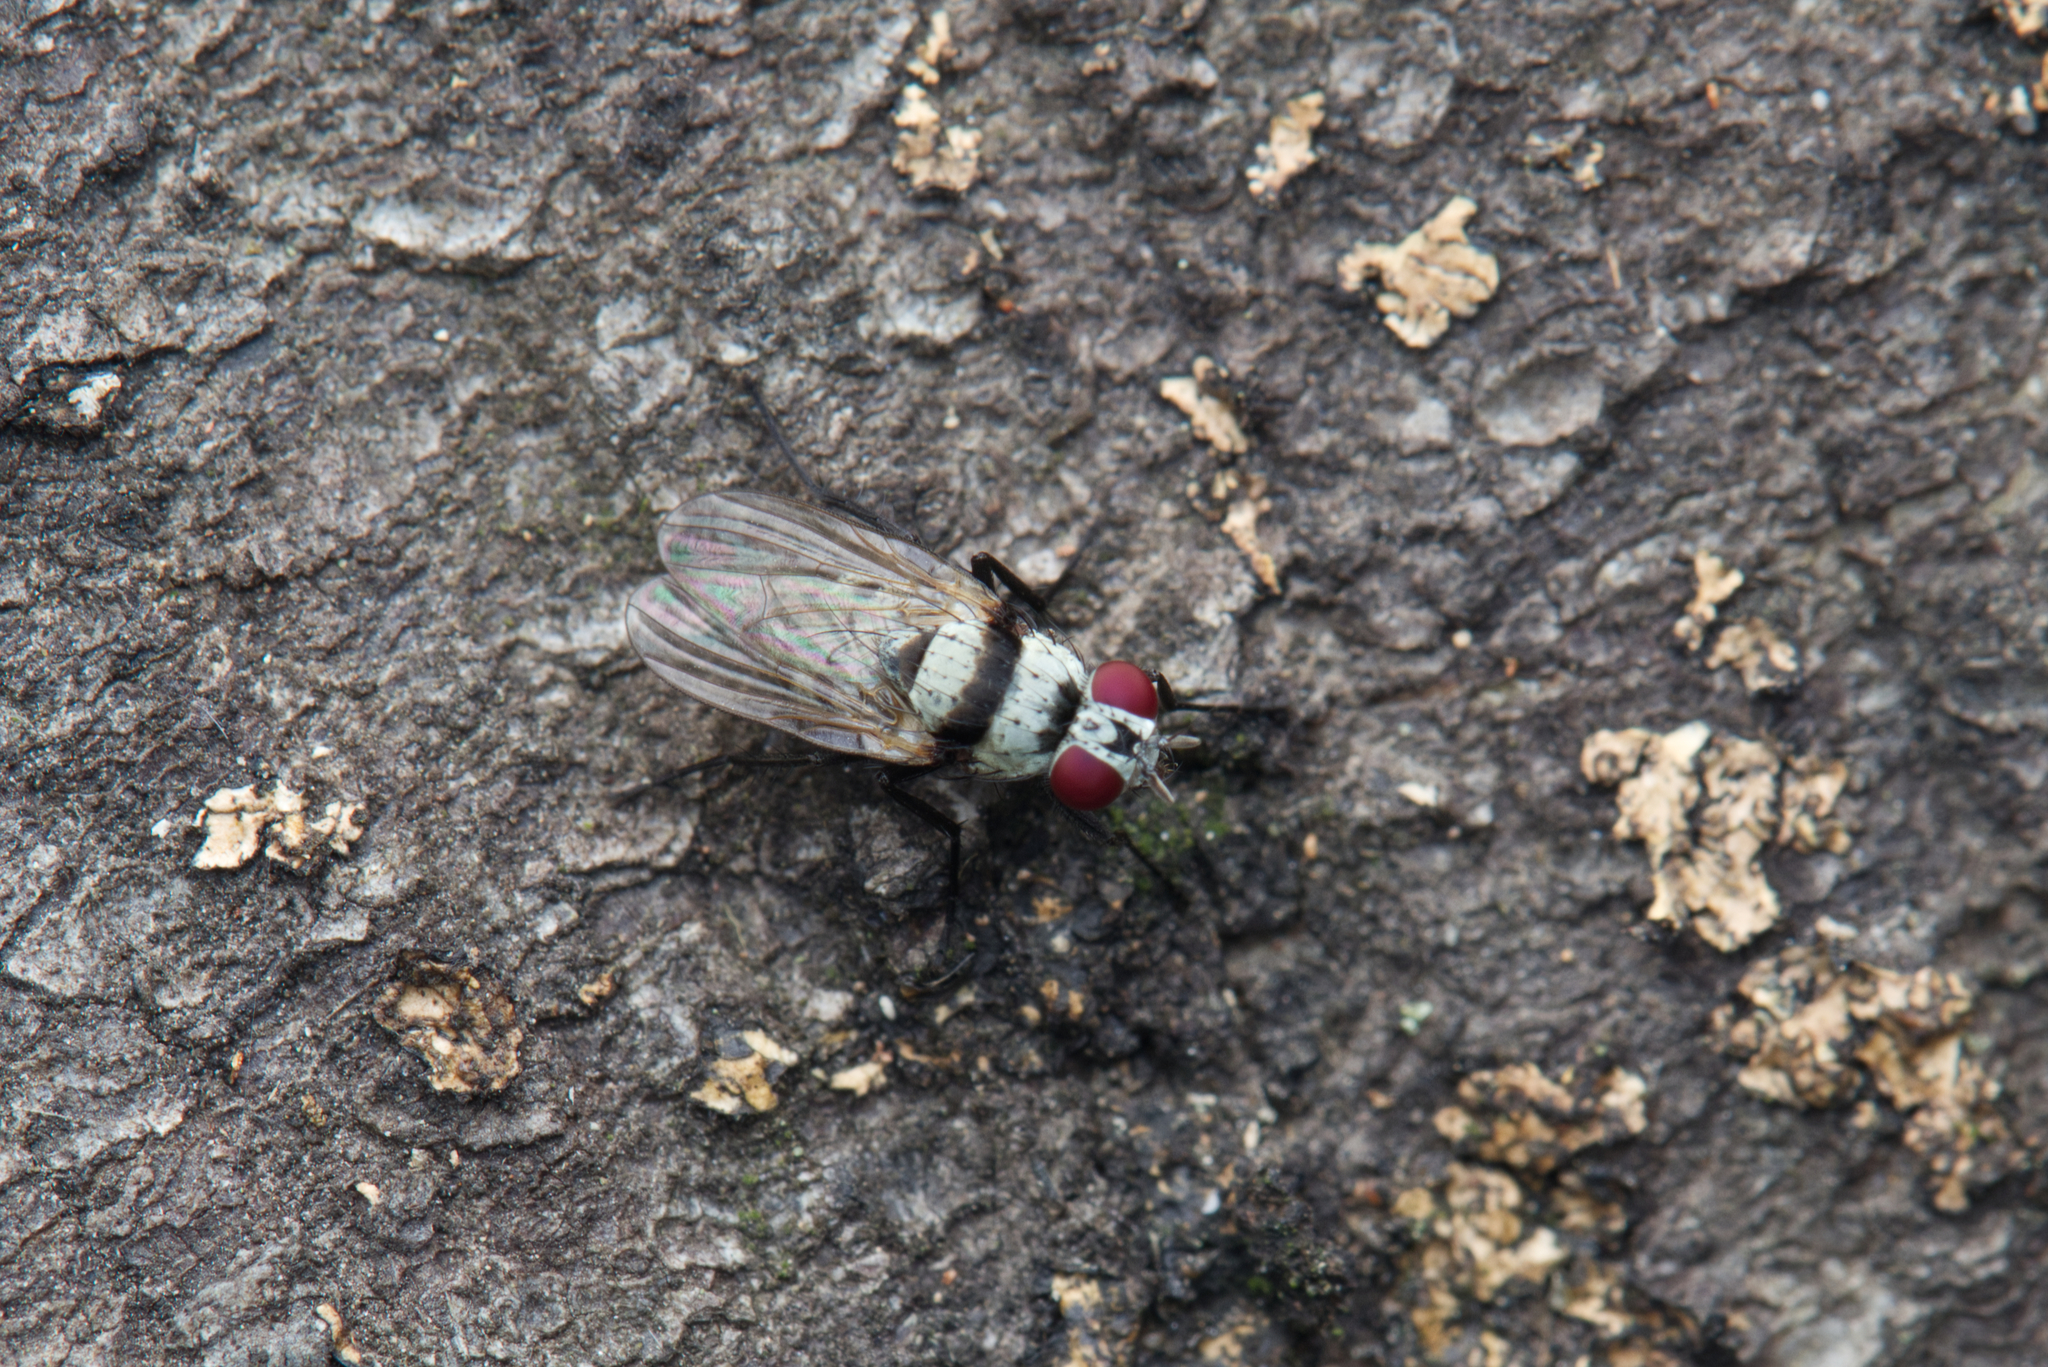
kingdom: Animalia
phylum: Arthropoda
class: Insecta
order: Diptera
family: Anthomyiidae
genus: Anthomyia
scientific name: Anthomyia silvestris
